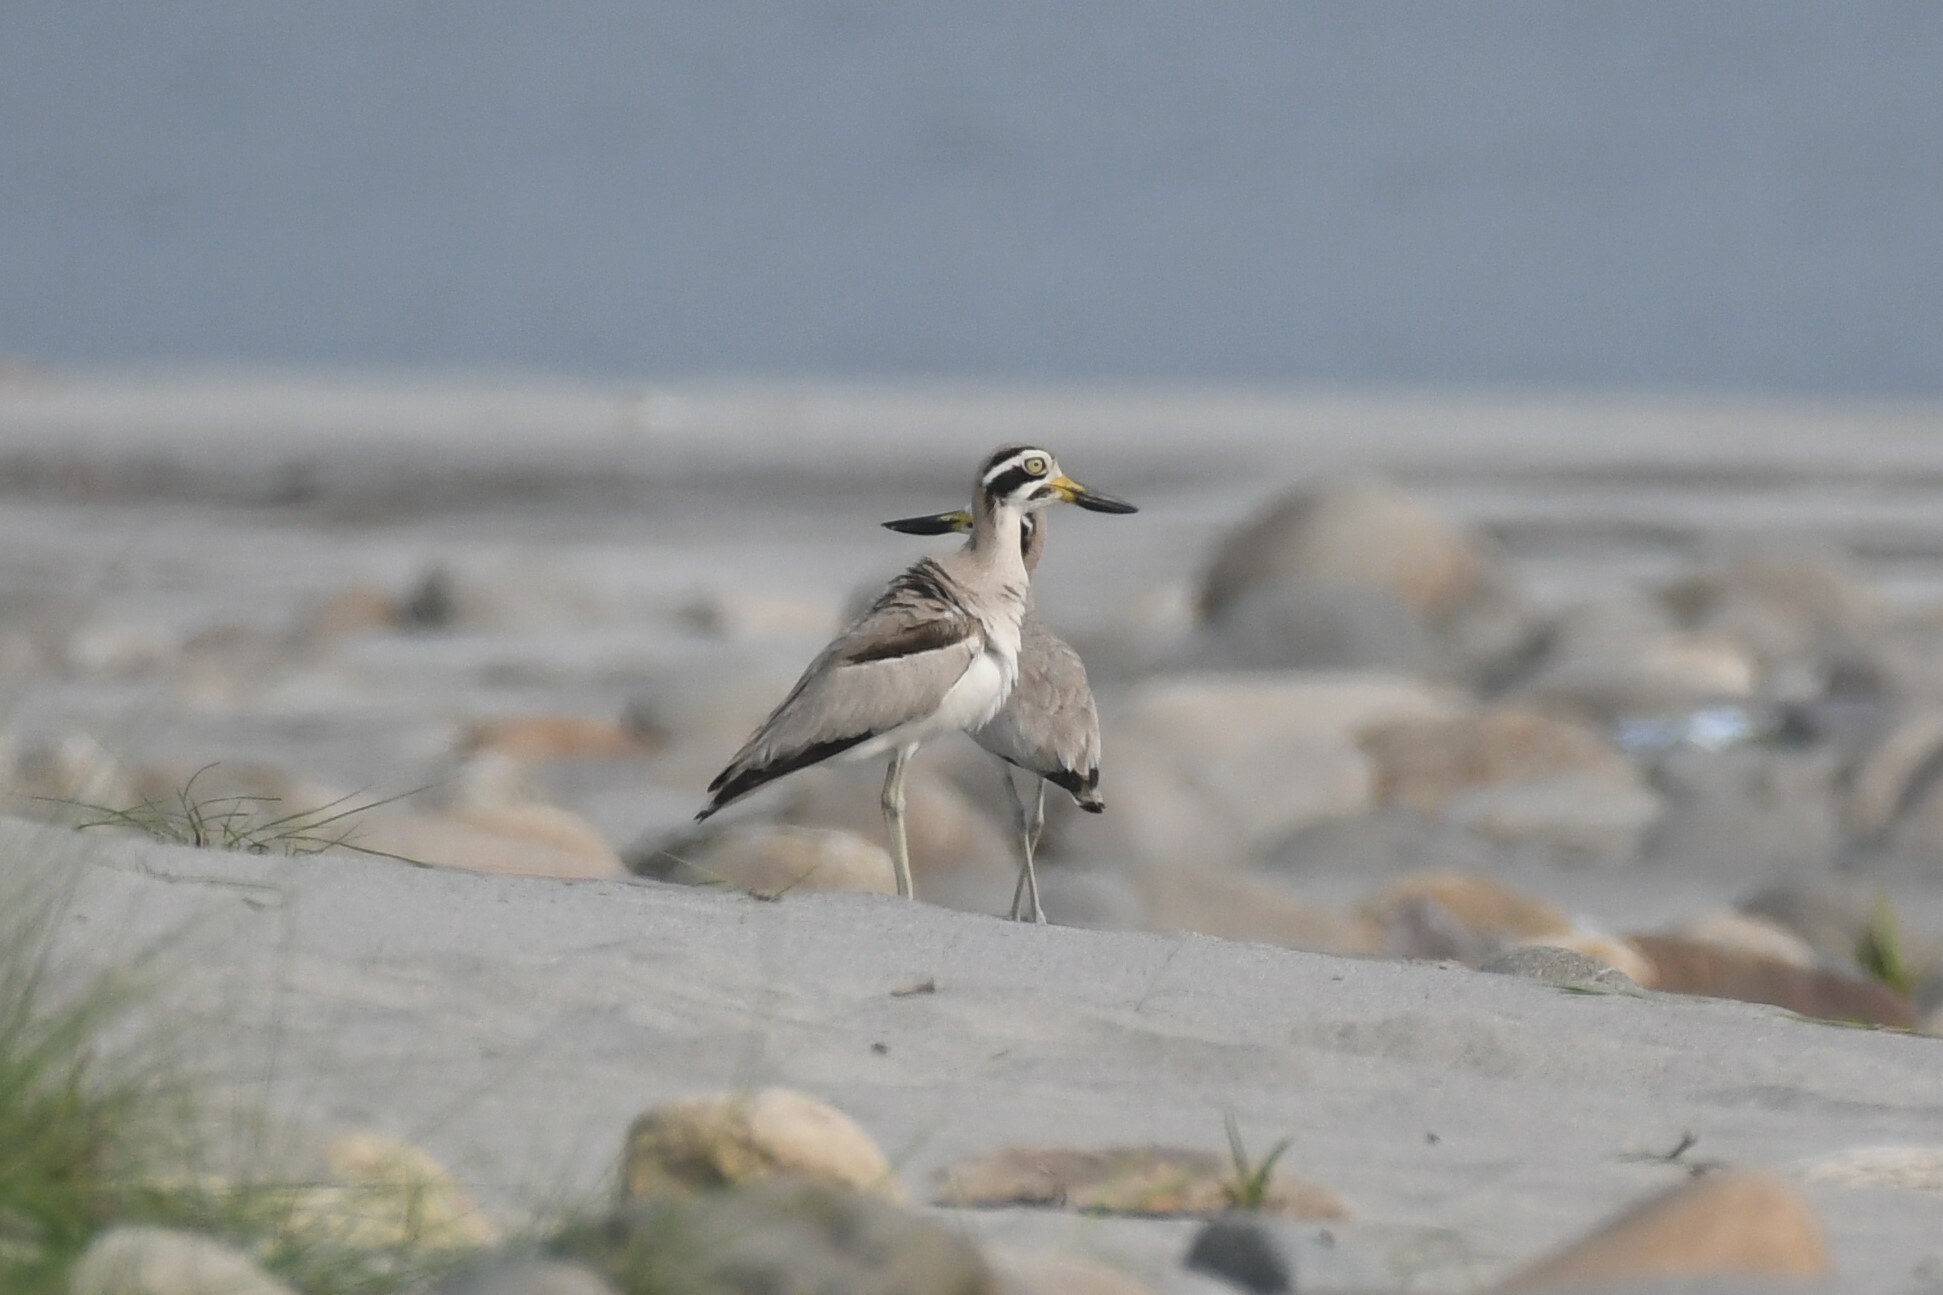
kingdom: Animalia
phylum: Chordata
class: Aves
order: Charadriiformes
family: Burhinidae
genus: Esacus
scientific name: Esacus recurvirostris
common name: Great stone-curlew
